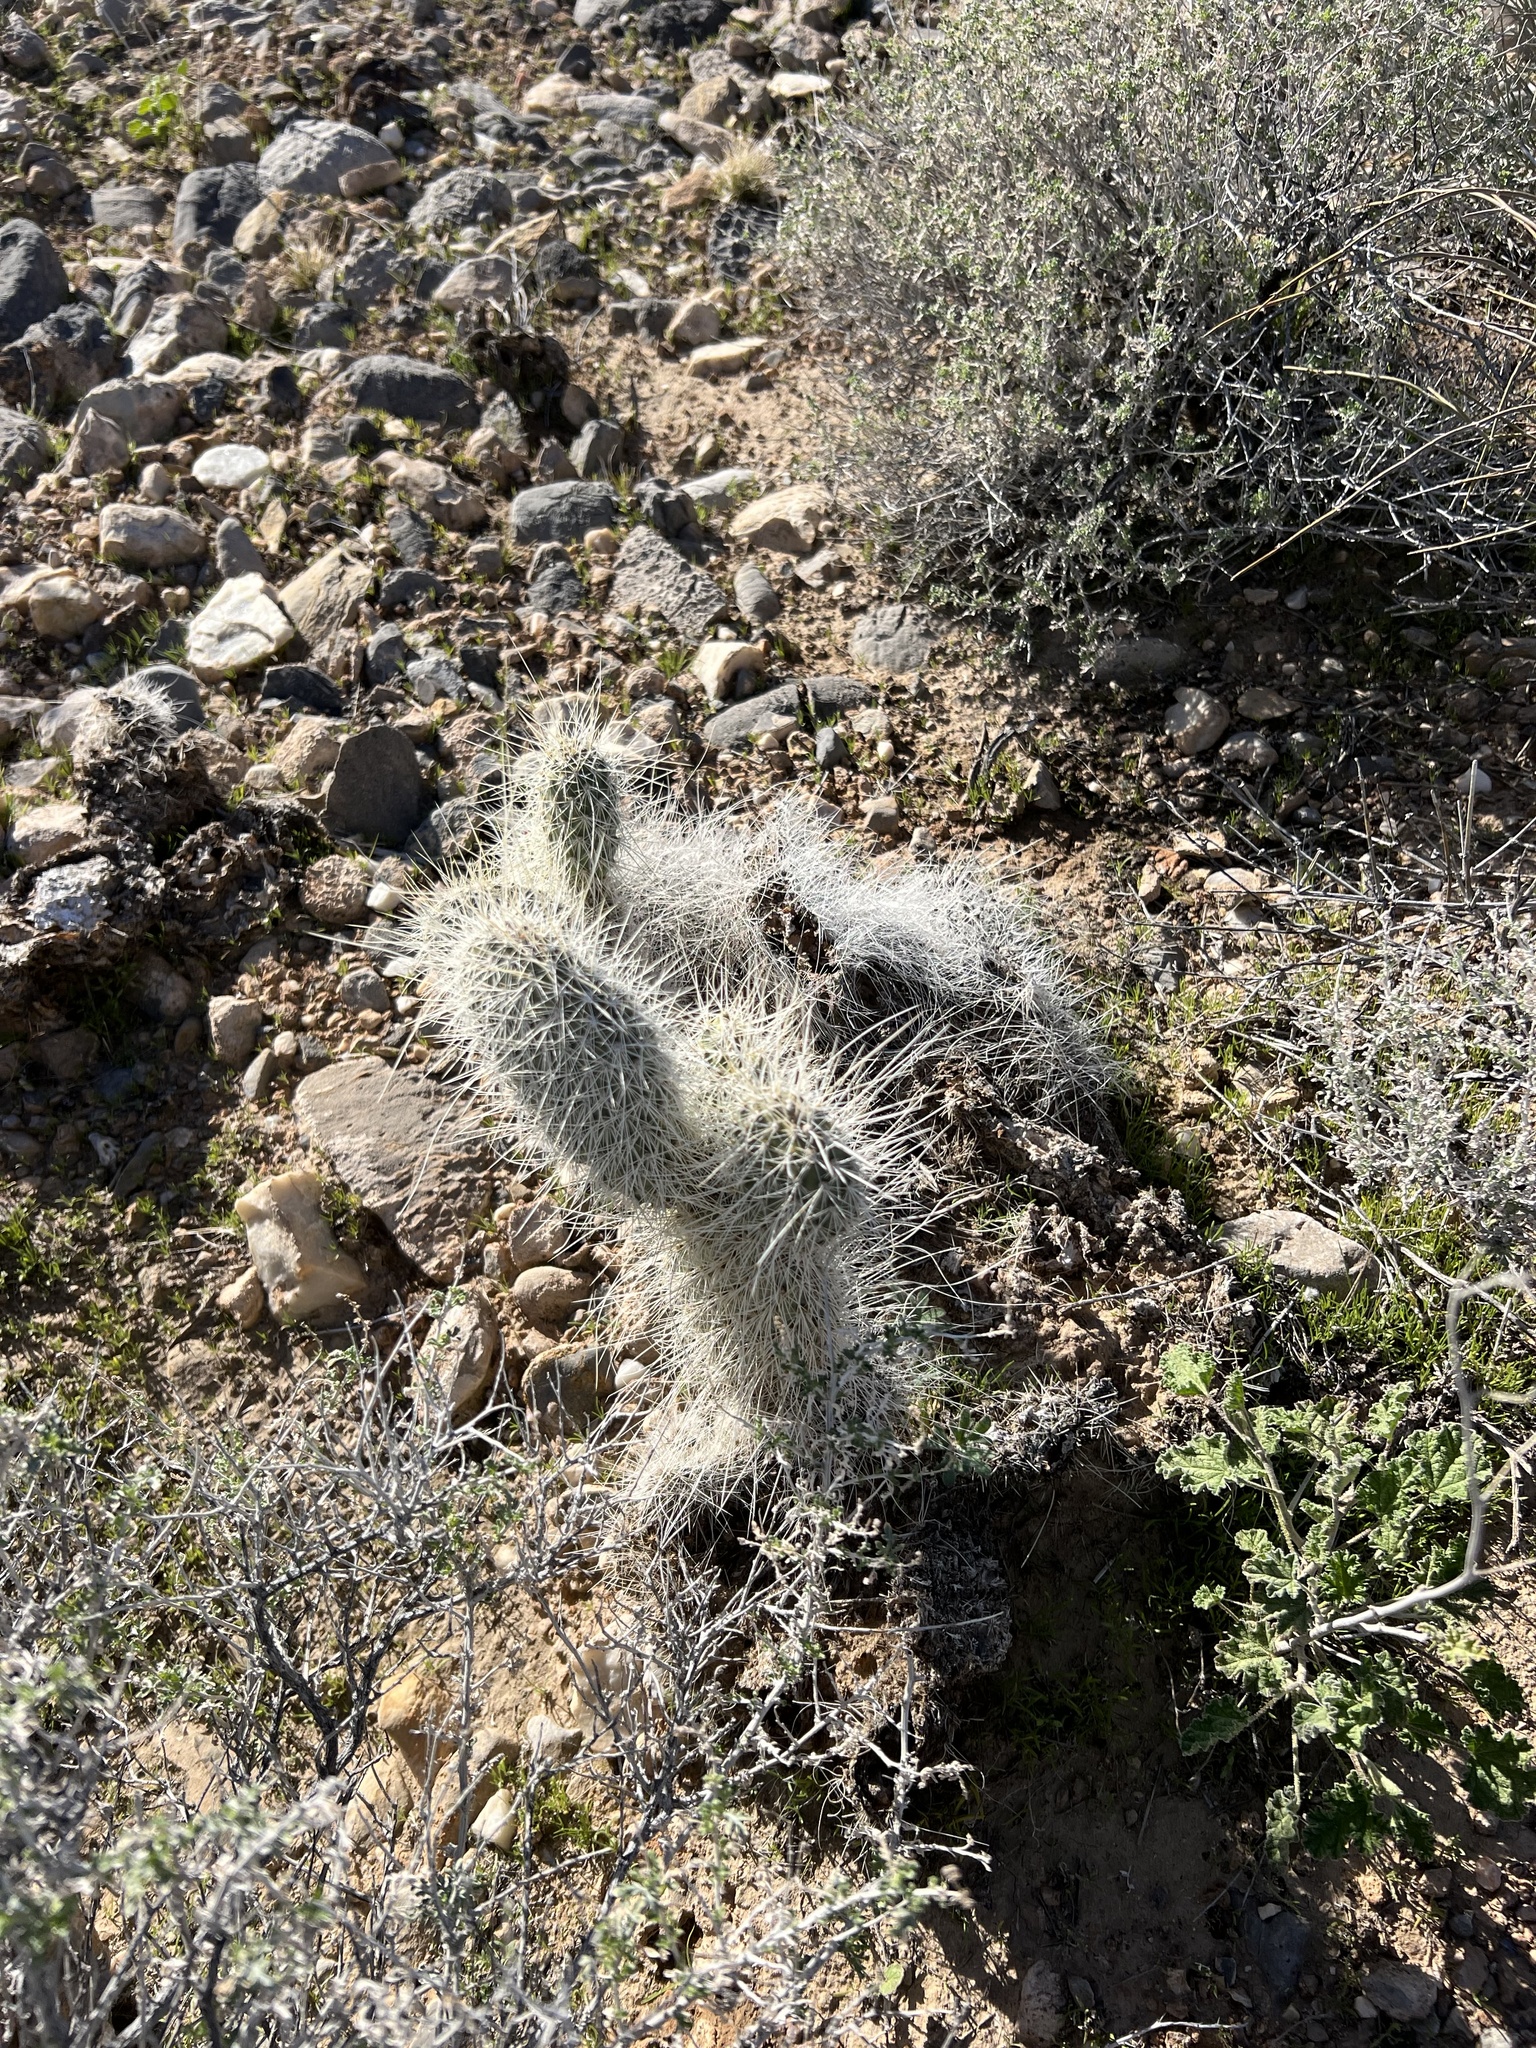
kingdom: Plantae
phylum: Tracheophyta
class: Magnoliopsida
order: Caryophyllales
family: Cactaceae
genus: Opuntia
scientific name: Opuntia polyacantha
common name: Plains prickly-pear
